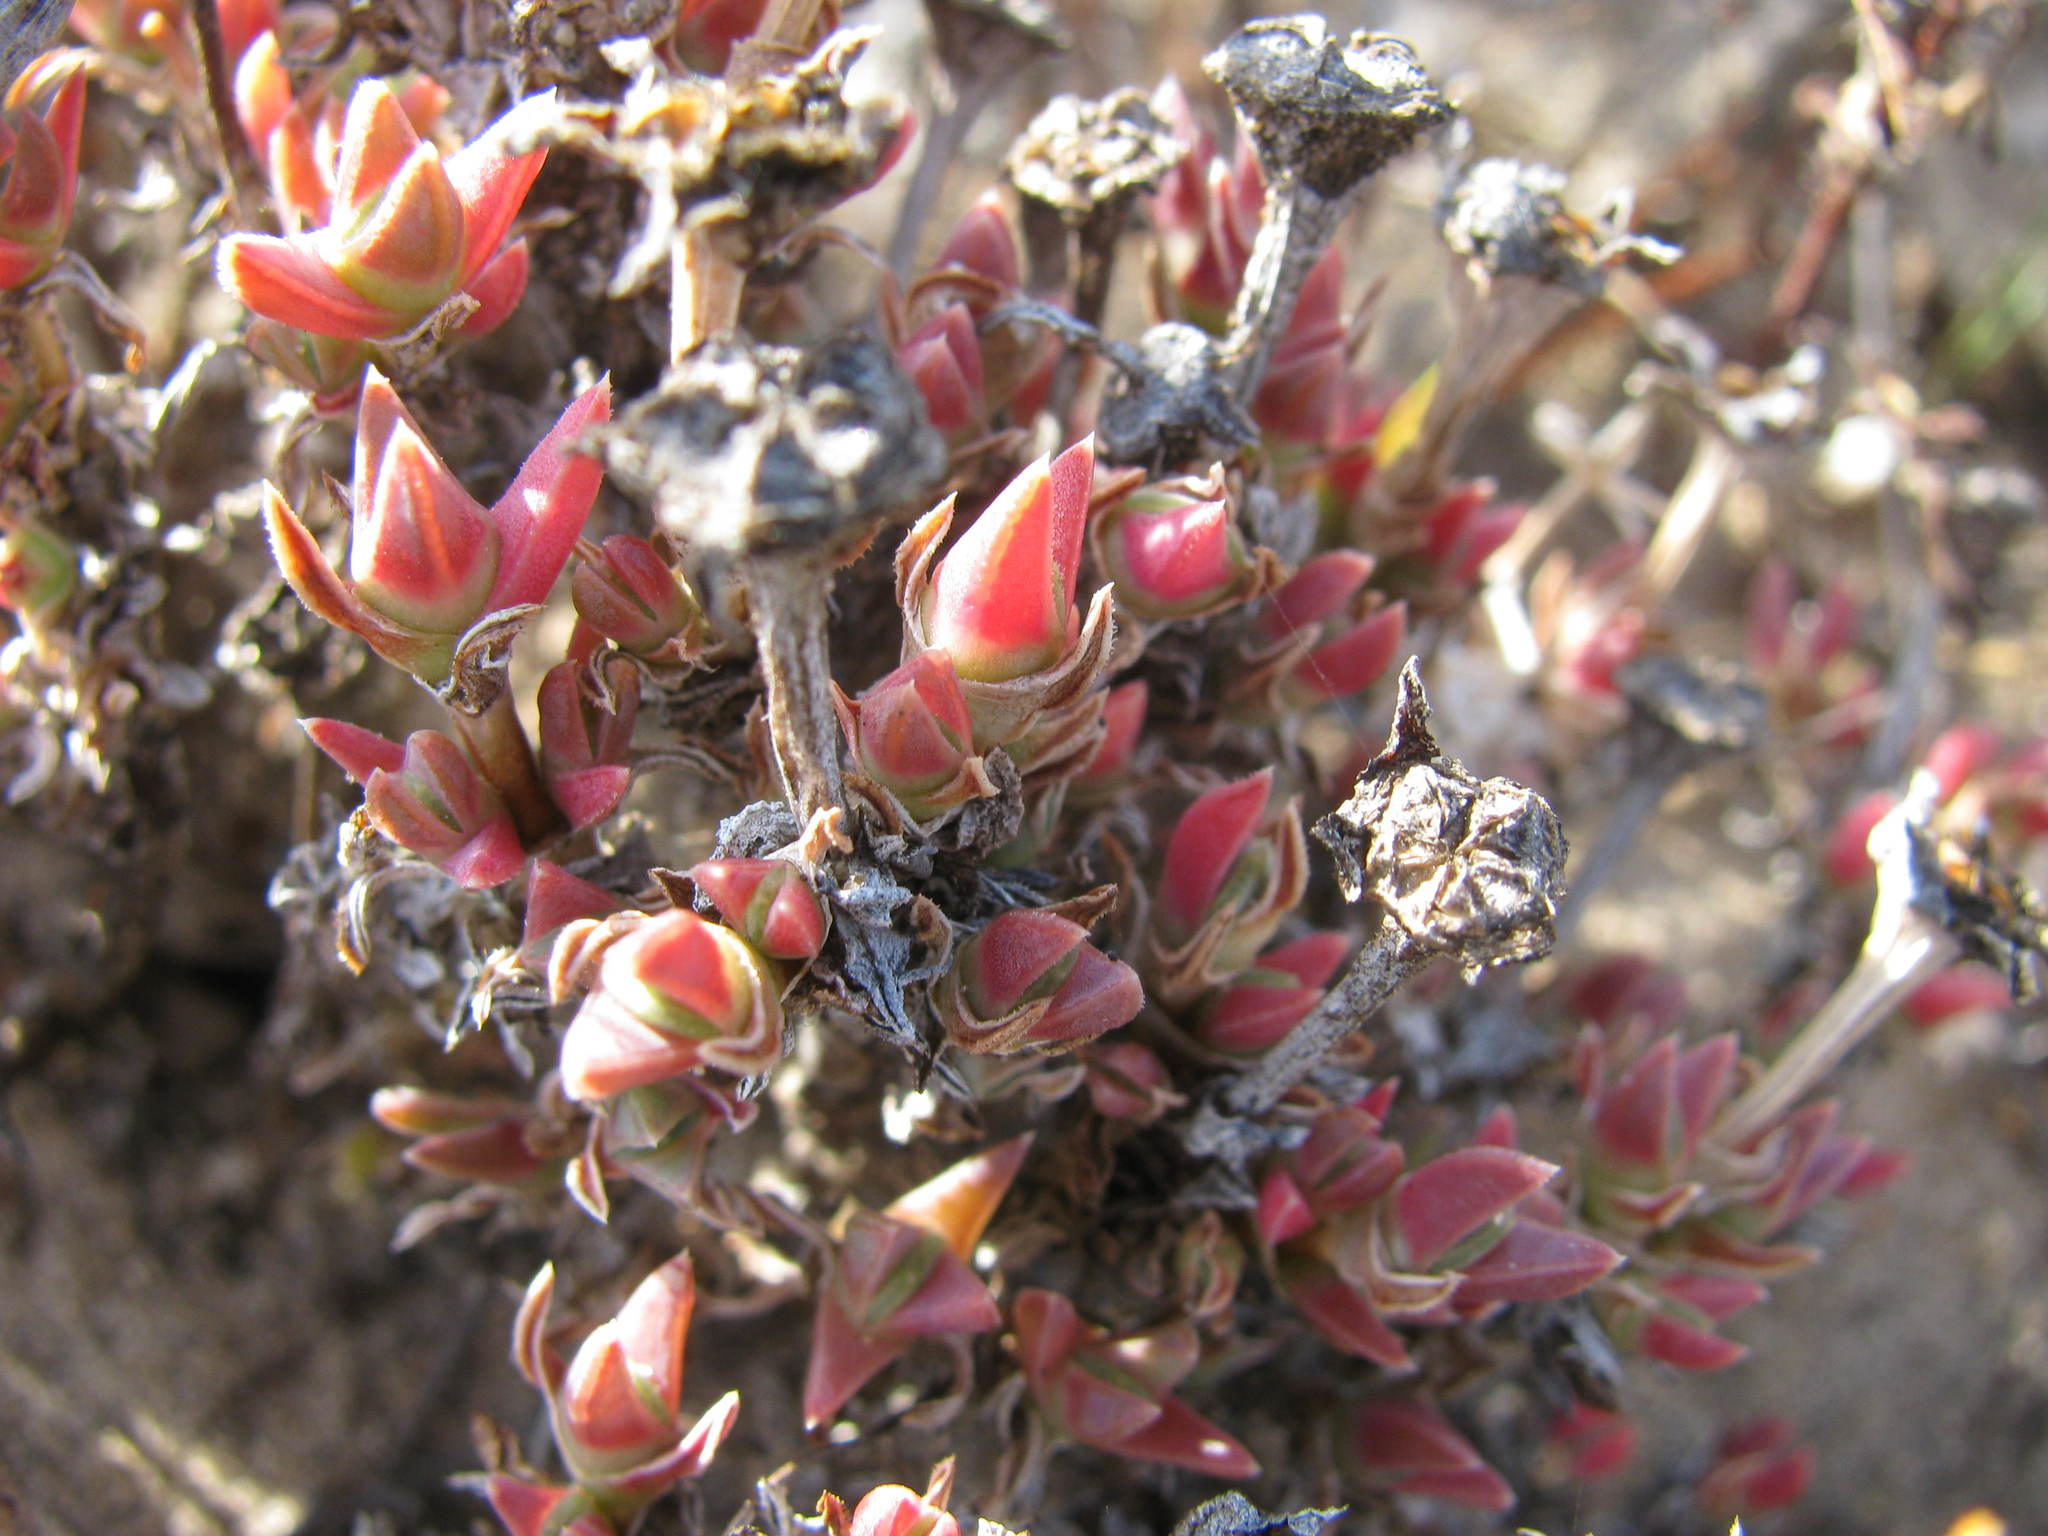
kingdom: Plantae
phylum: Tracheophyta
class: Magnoliopsida
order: Caryophyllales
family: Aizoaceae
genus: Antimima
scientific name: Antimima concinna
